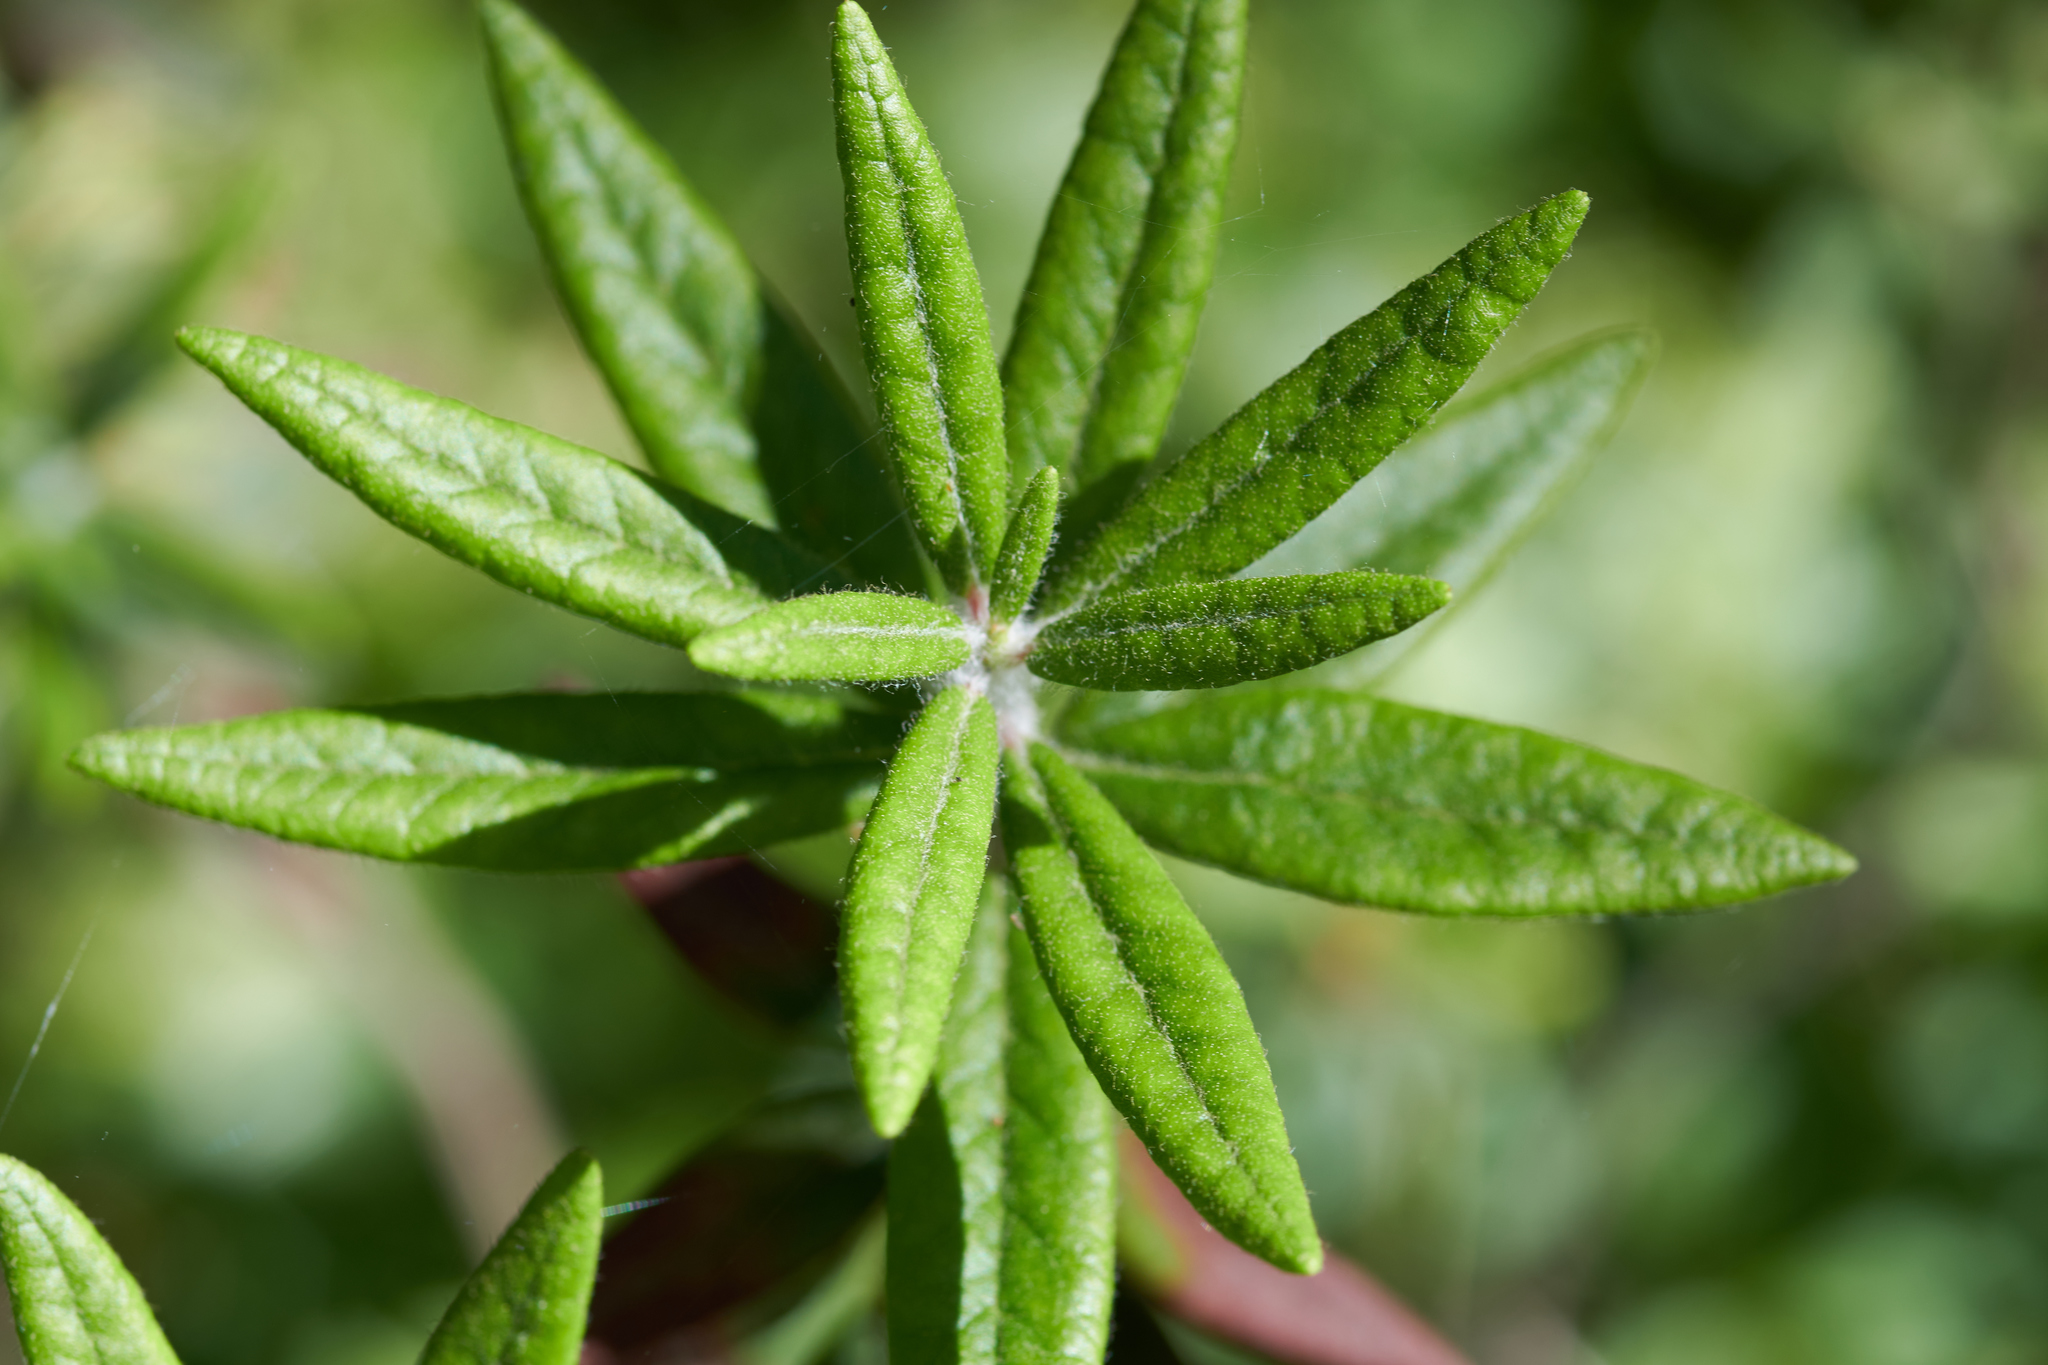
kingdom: Plantae
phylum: Tracheophyta
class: Magnoliopsida
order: Ericales
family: Ericaceae
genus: Rhododendron
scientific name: Rhododendron groenlandicum
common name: Bog labrador tea
